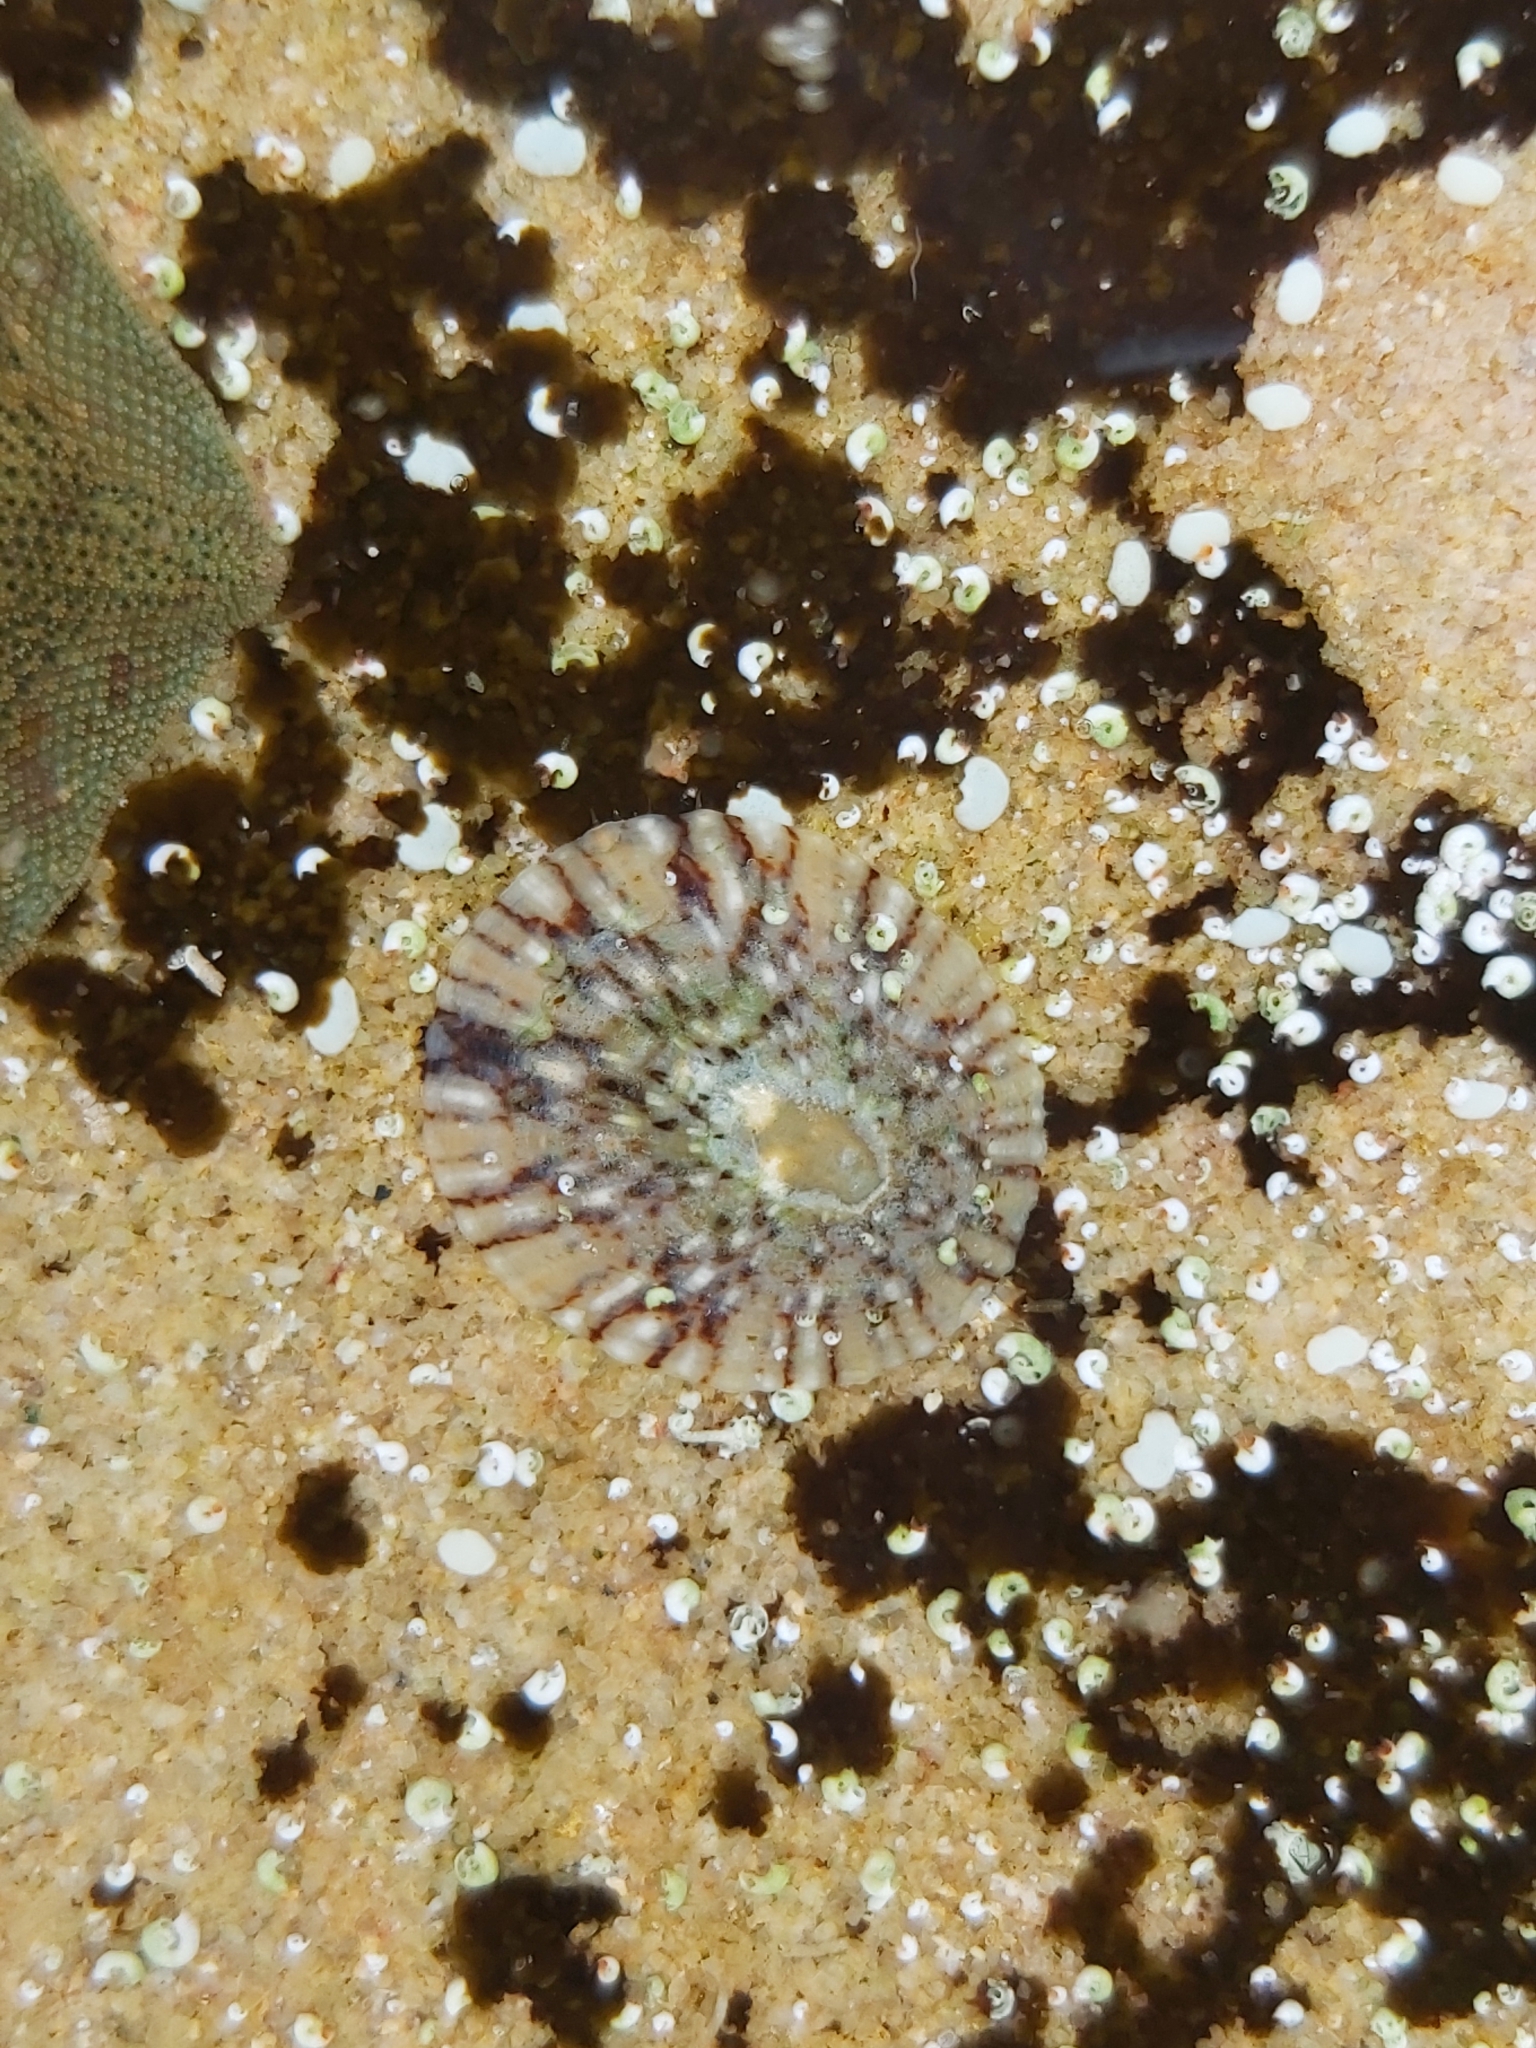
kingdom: Animalia
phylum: Mollusca
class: Gastropoda
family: Nacellidae
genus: Cellana
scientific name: Cellana tramoserica
